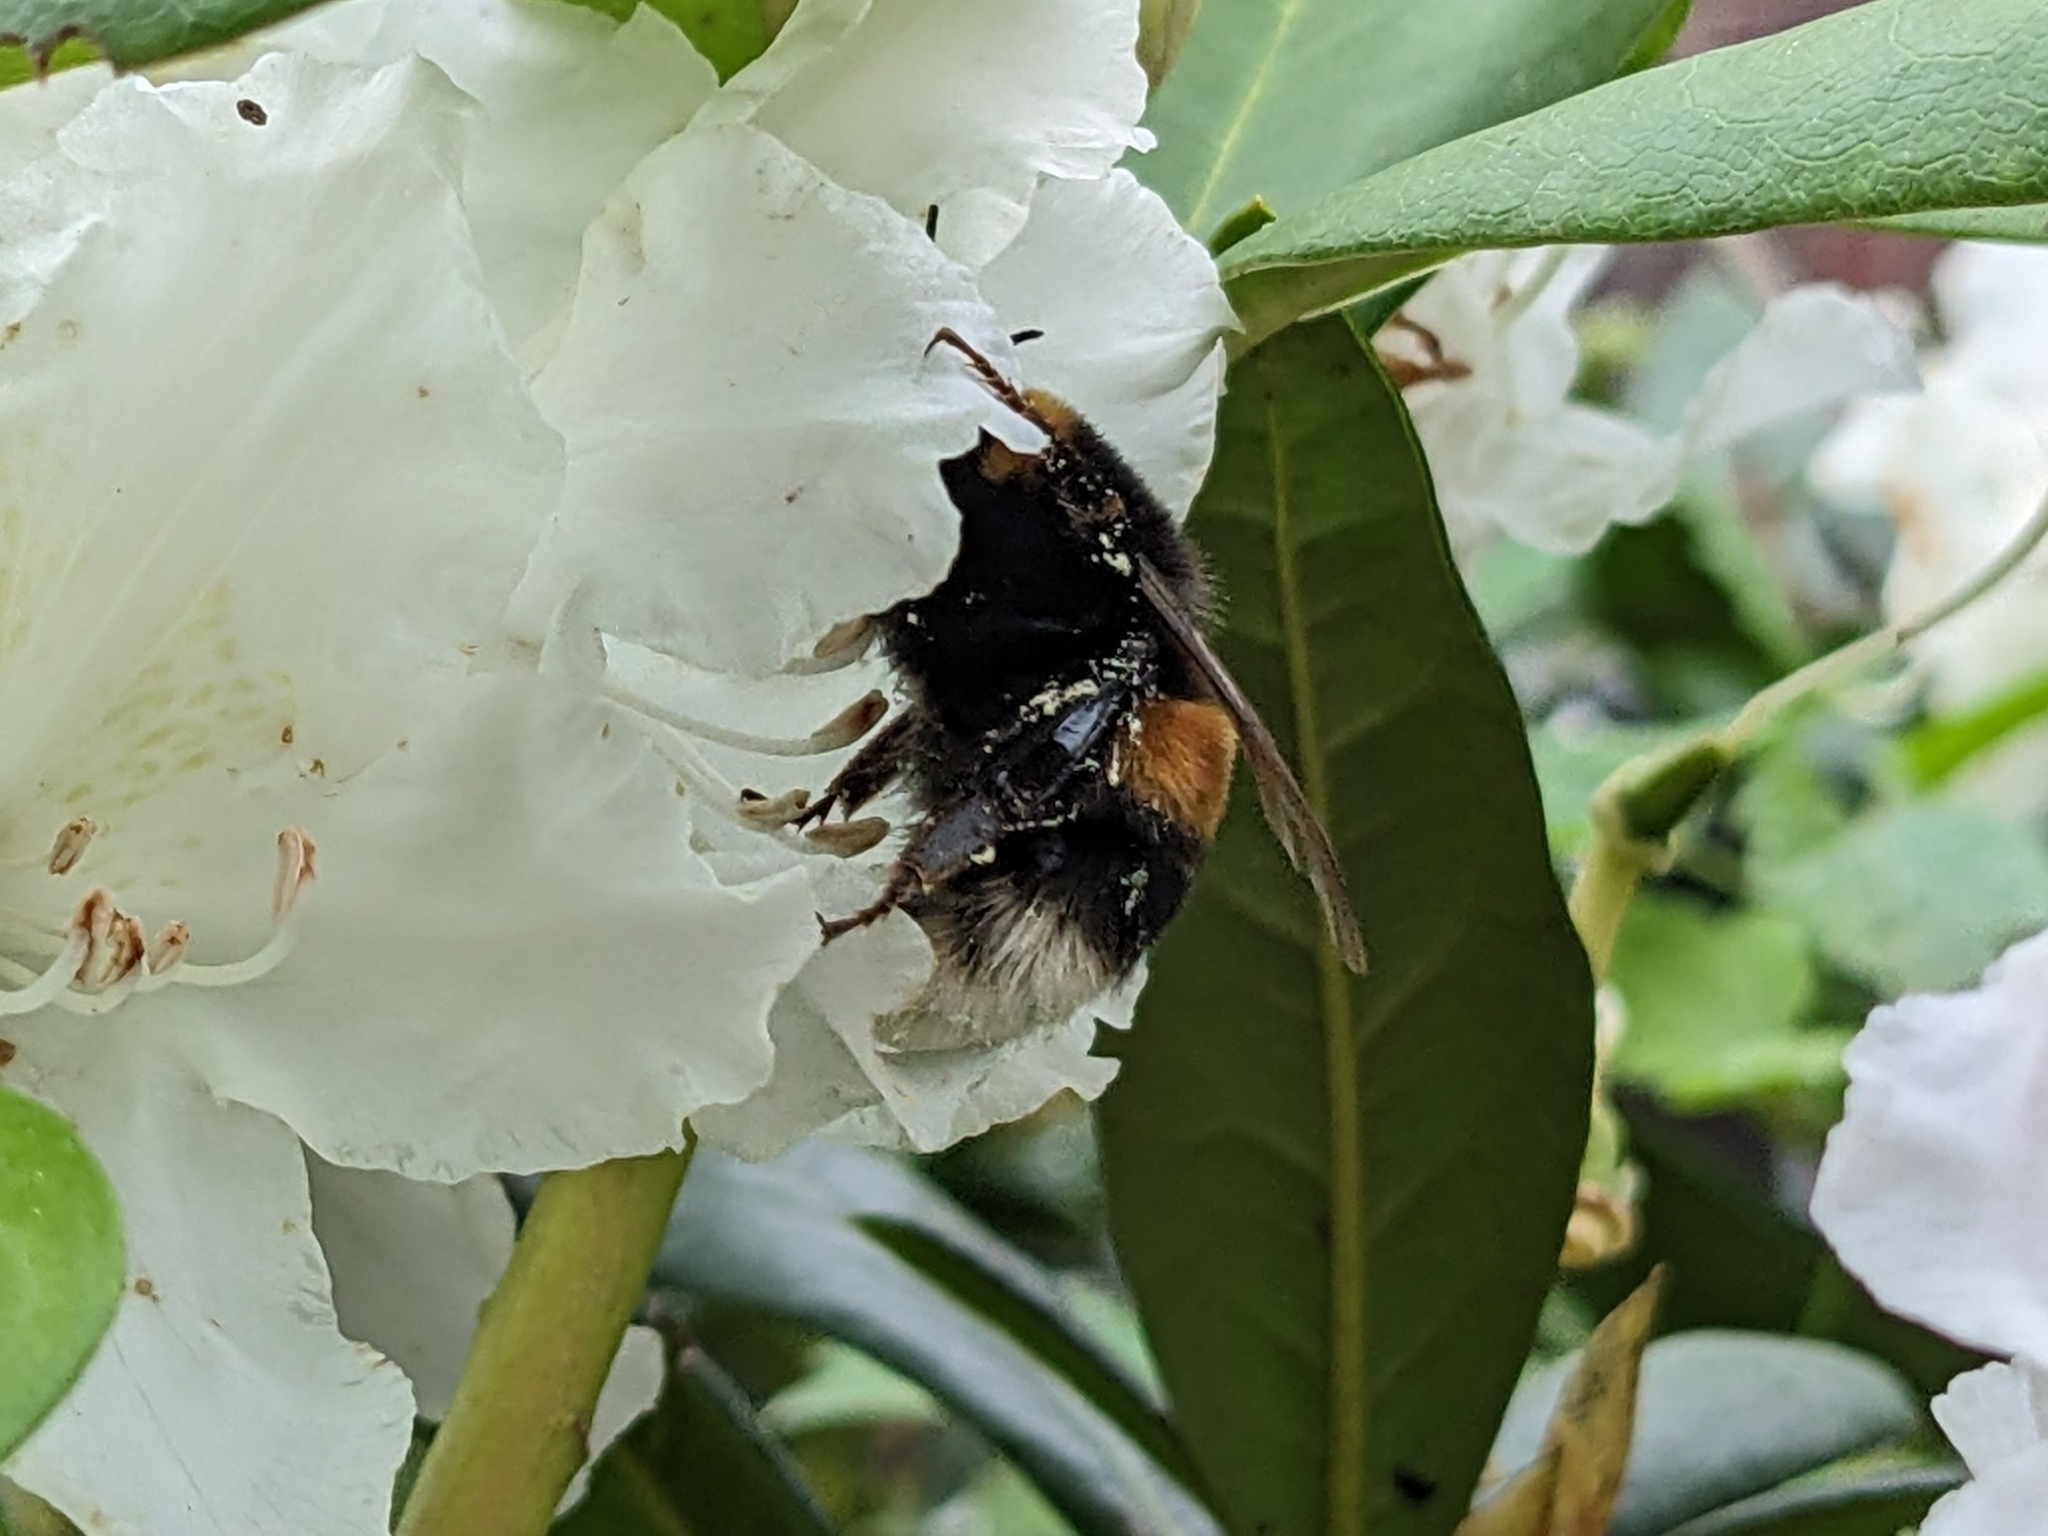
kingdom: Animalia
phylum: Arthropoda
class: Insecta
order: Hymenoptera
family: Apidae
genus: Bombus
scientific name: Bombus terrestris
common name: Buff-tailed bumblebee
